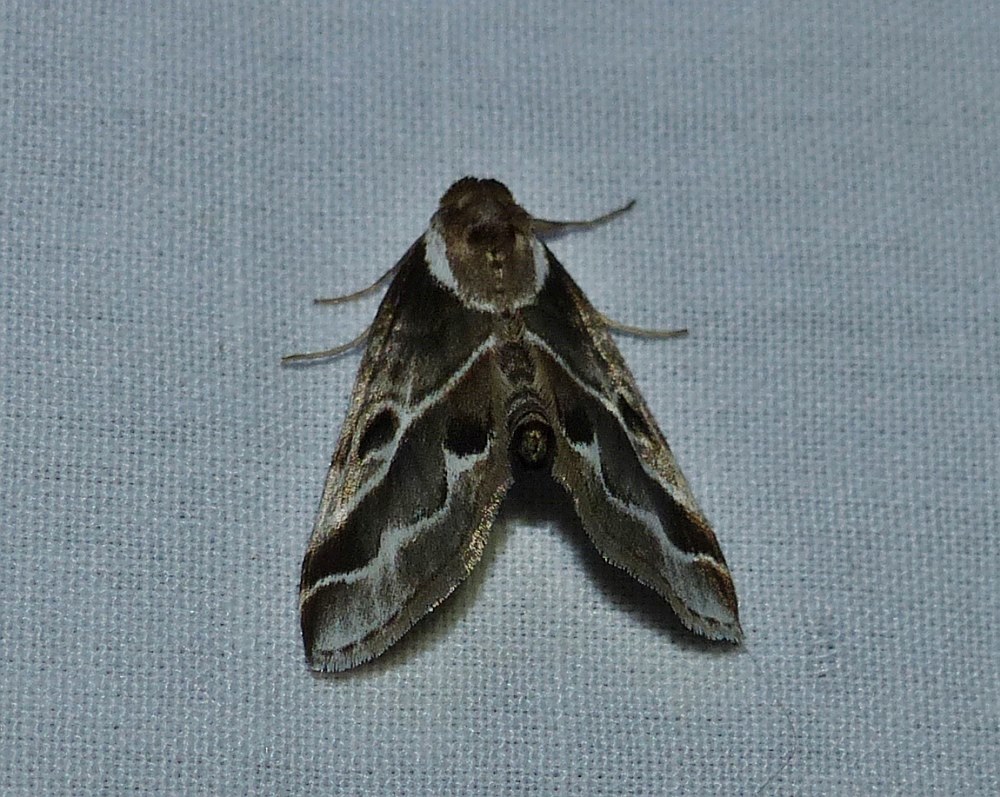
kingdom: Animalia
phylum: Arthropoda
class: Insecta
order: Lepidoptera
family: Nolidae
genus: Baileya
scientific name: Baileya doubledayi
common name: Doubleday's baileya moth
